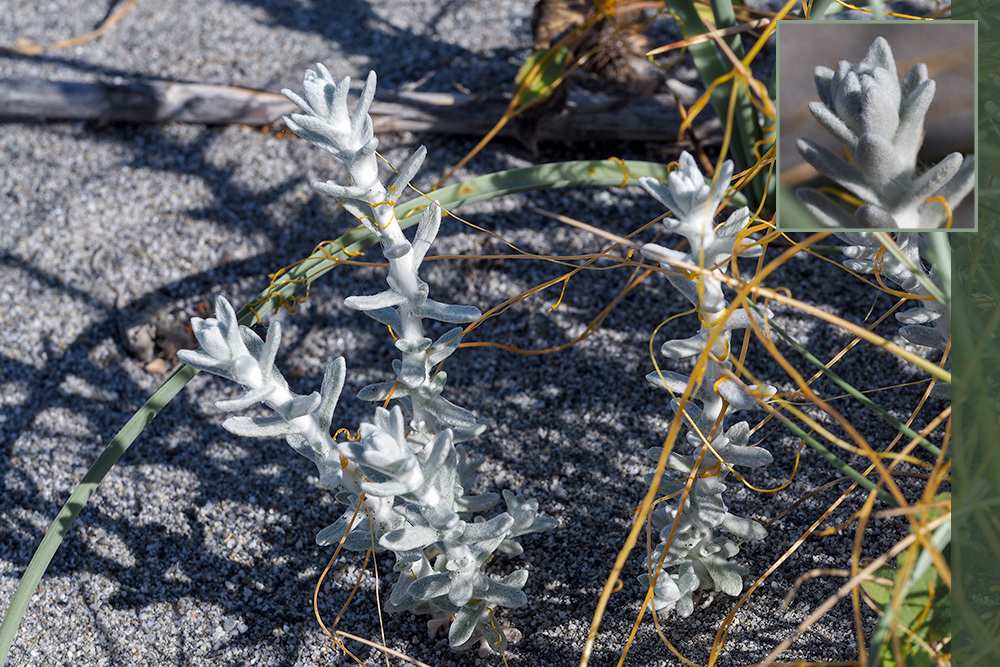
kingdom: Plantae
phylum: Tracheophyta
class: Magnoliopsida
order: Asterales
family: Asteraceae
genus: Achillea
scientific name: Achillea maritima
